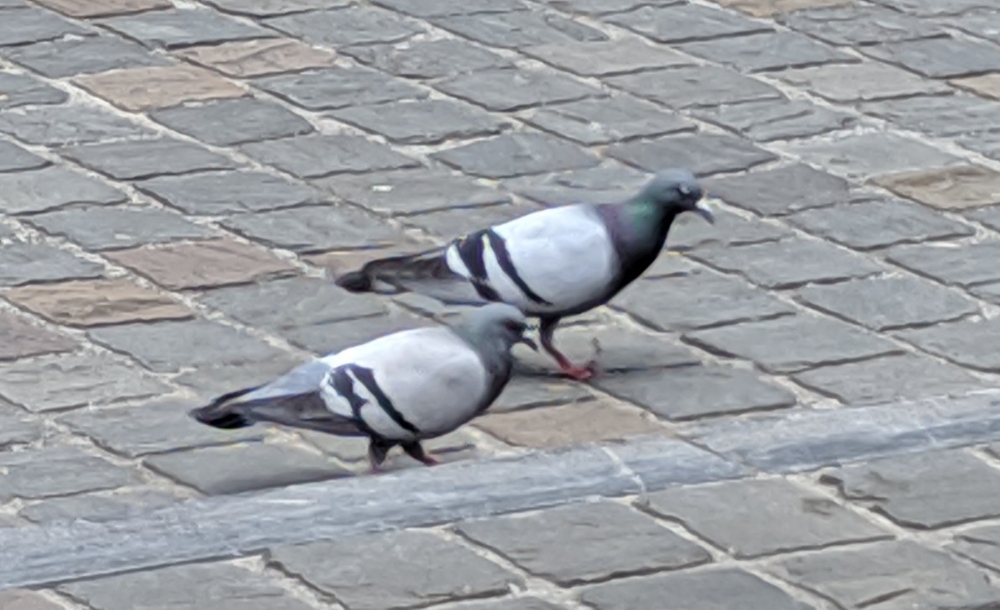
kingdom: Animalia
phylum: Chordata
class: Aves
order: Columbiformes
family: Columbidae
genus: Columba
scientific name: Columba livia
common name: Rock pigeon
